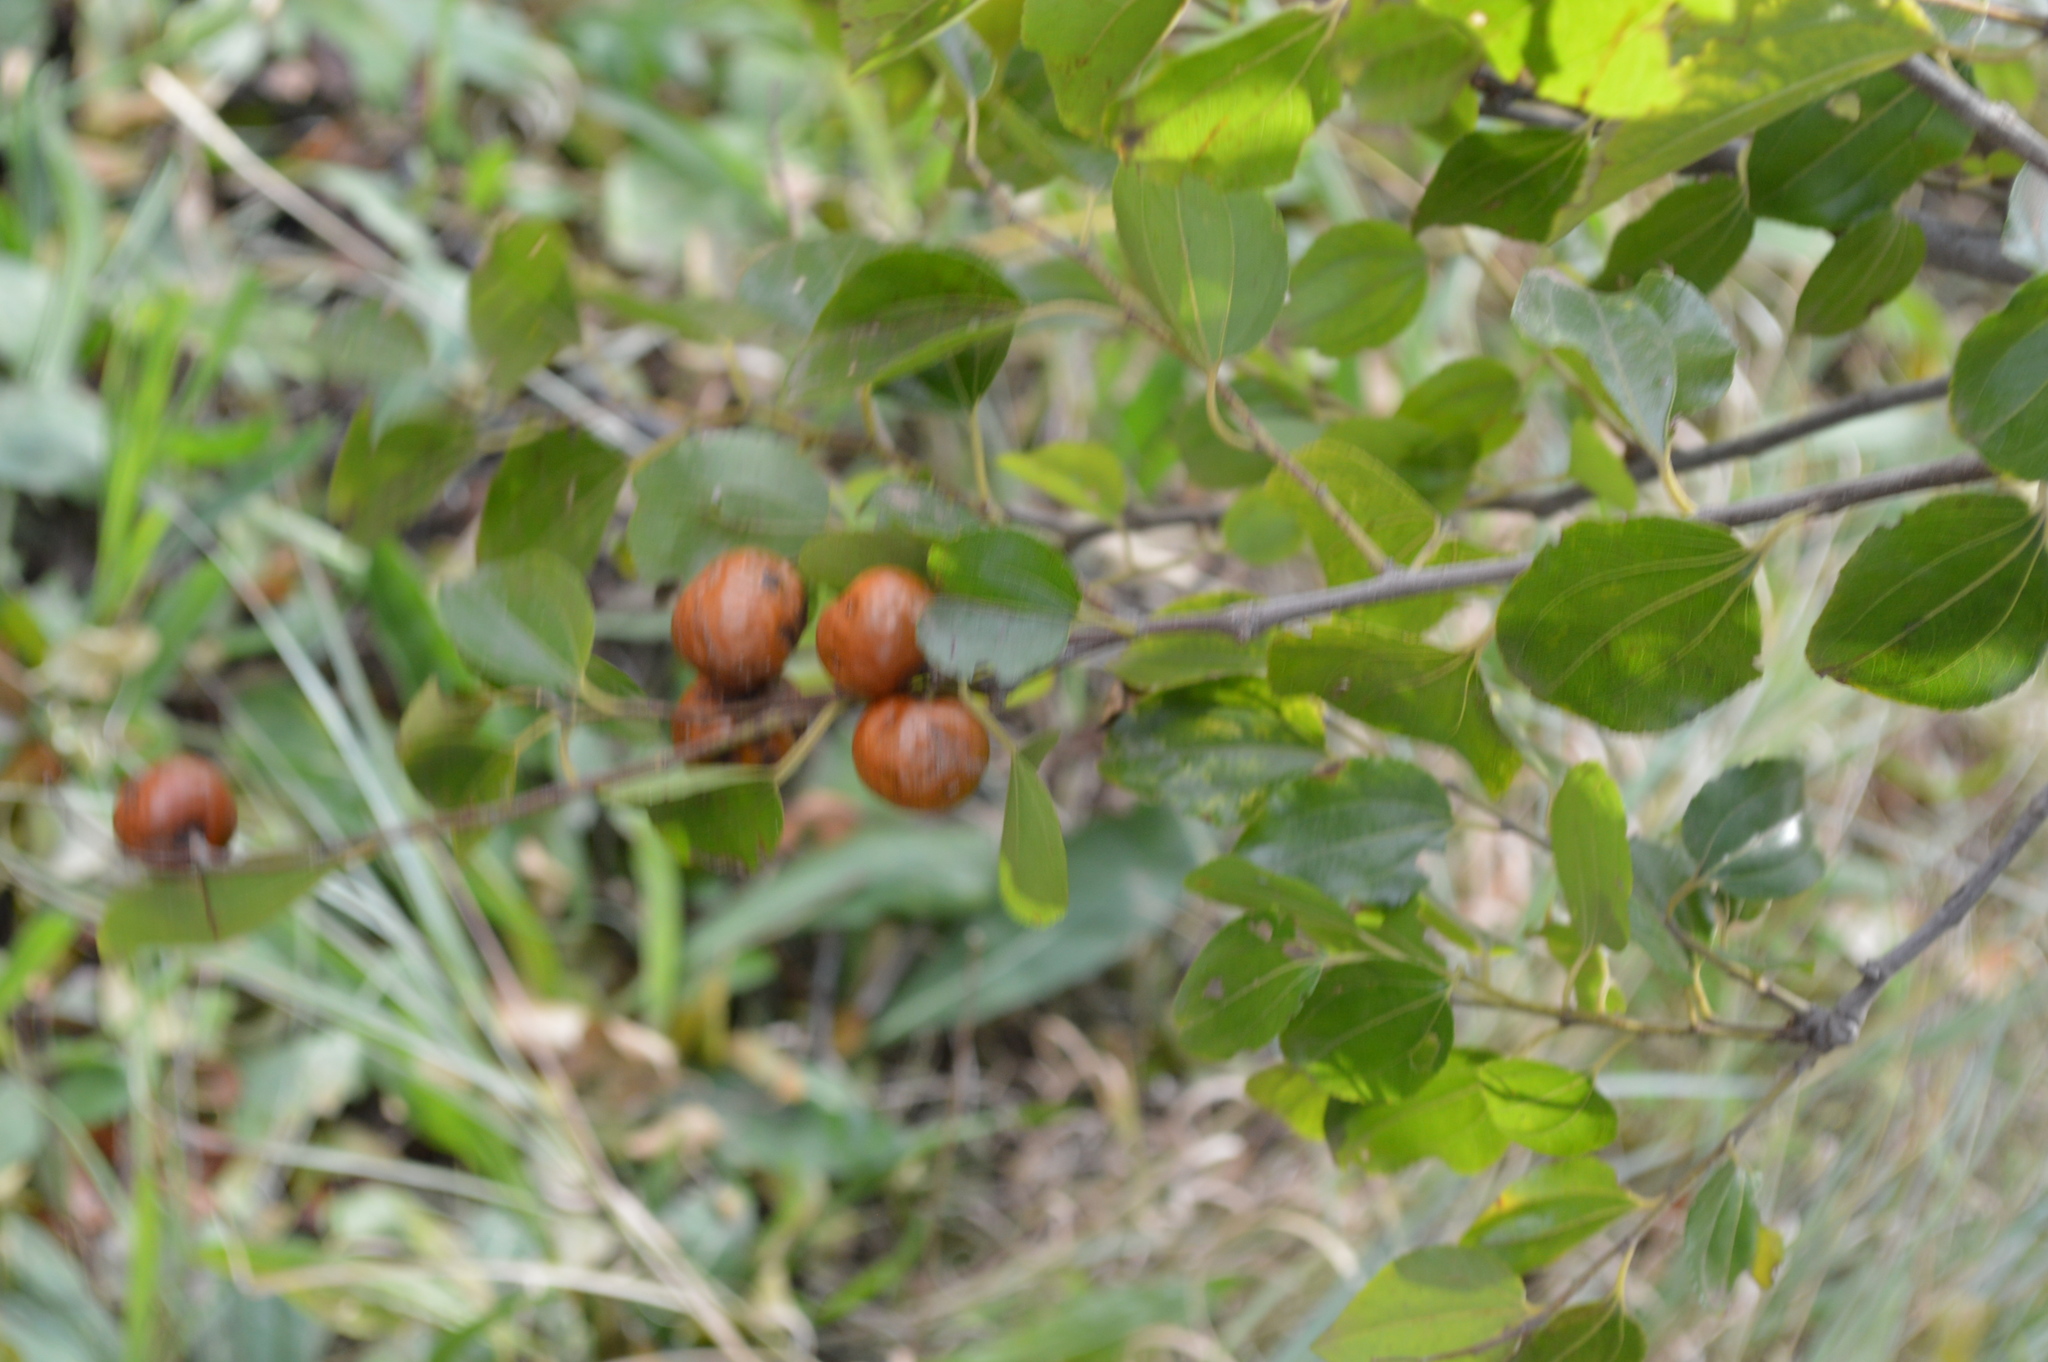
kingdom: Plantae
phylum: Tracheophyta
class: Magnoliopsida
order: Rosales
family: Rhamnaceae
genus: Ziziphus
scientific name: Ziziphus mucronata
